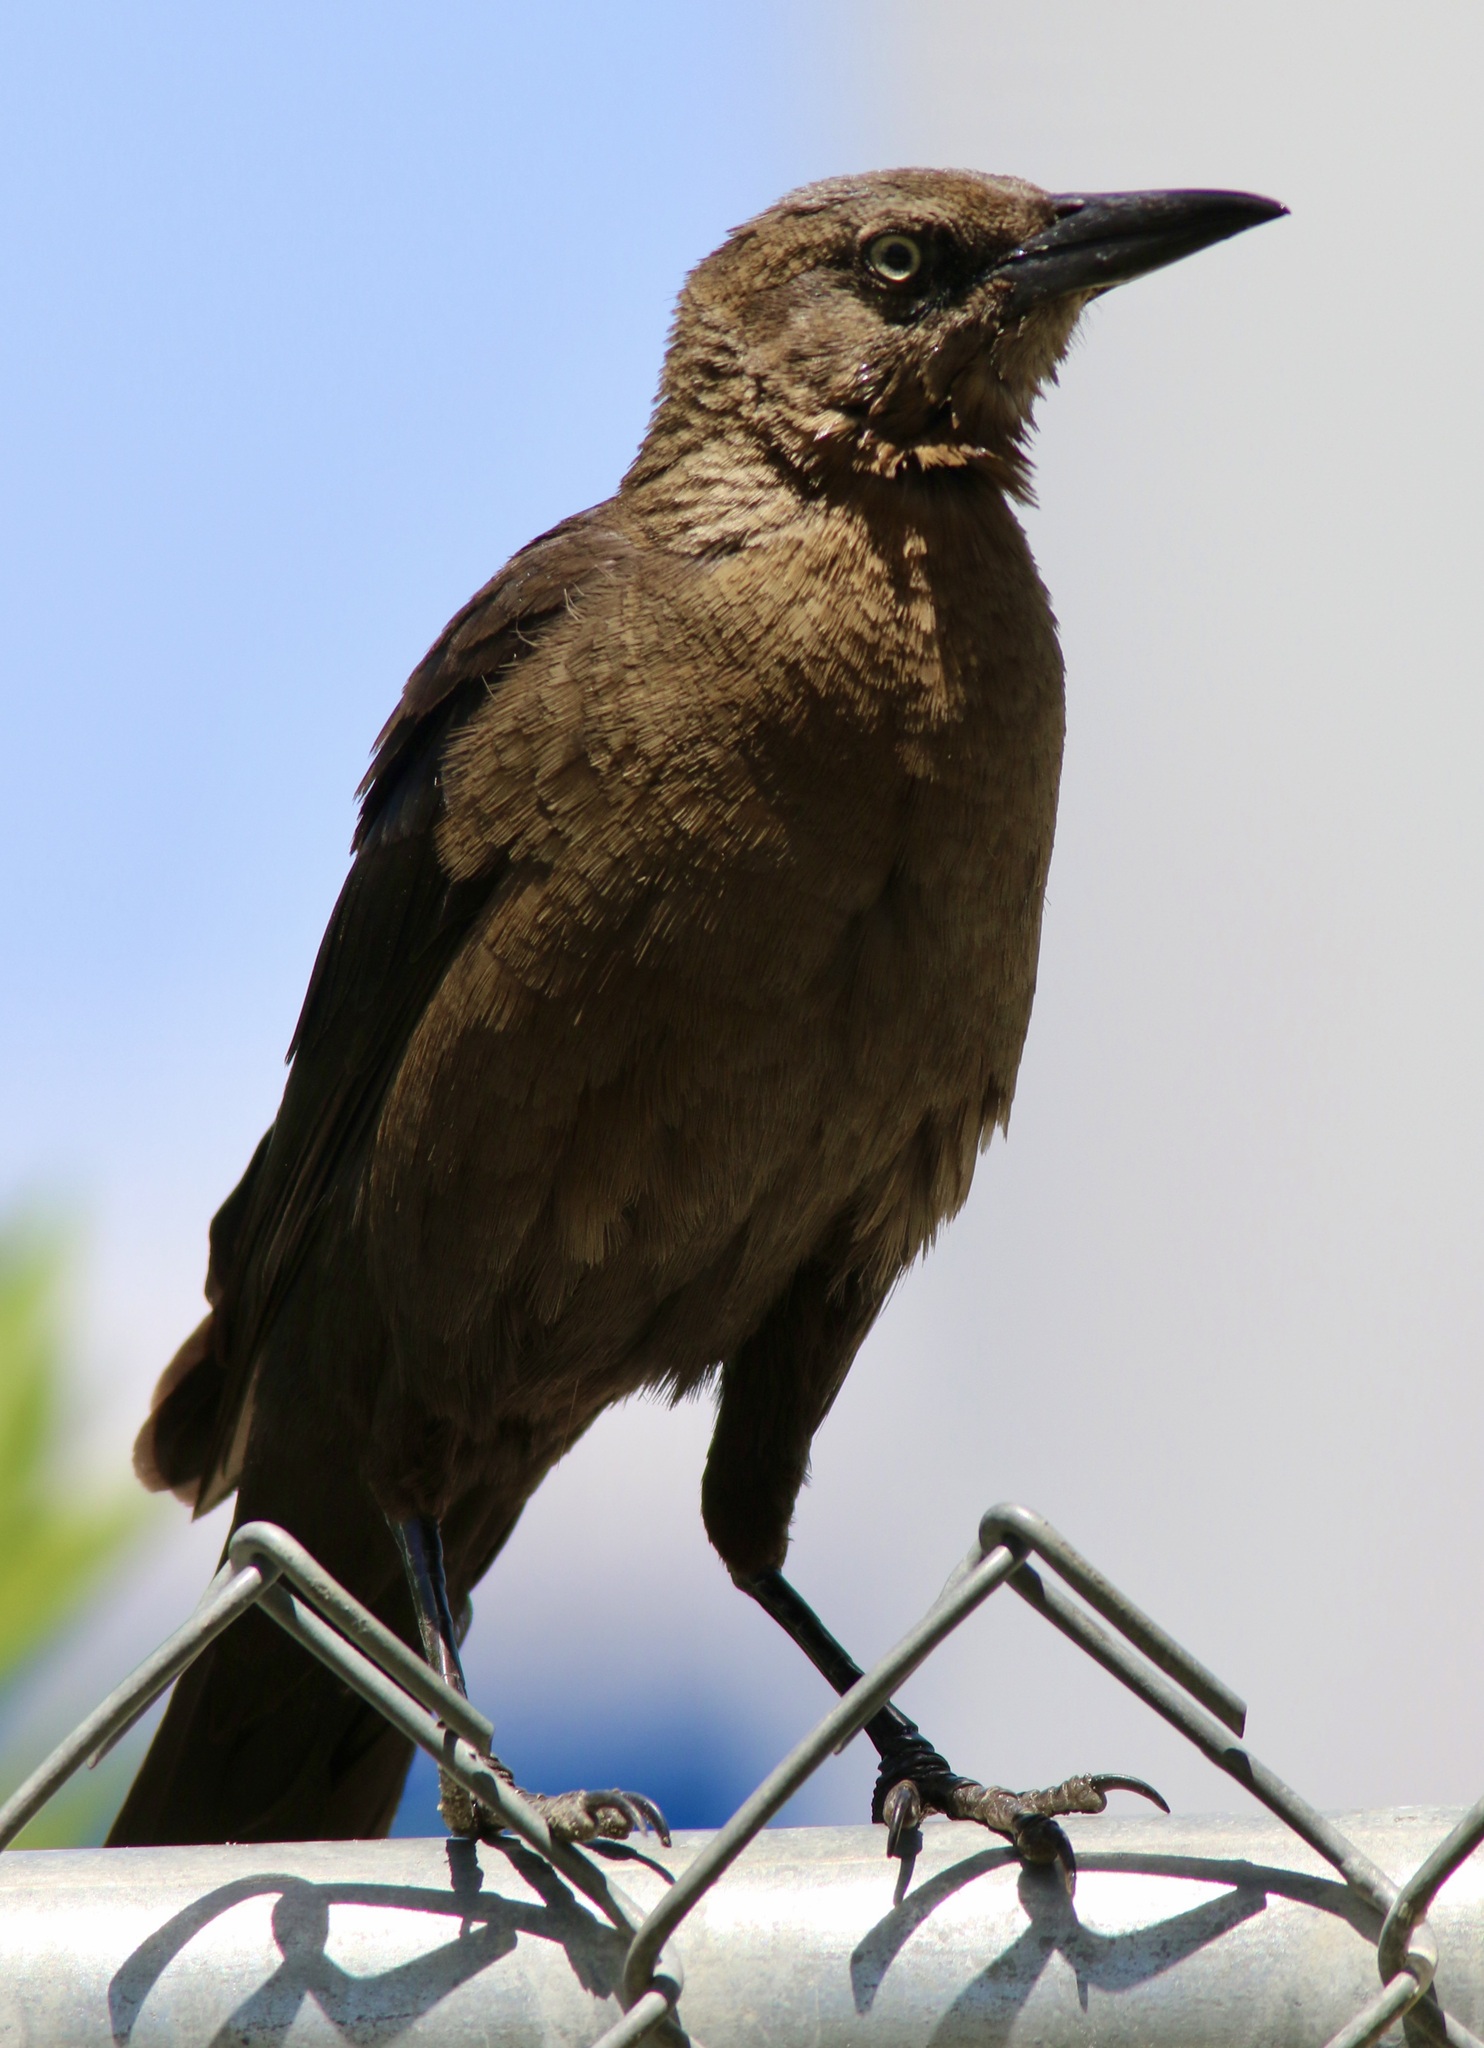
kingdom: Animalia
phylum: Chordata
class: Aves
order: Passeriformes
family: Icteridae
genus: Quiscalus
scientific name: Quiscalus mexicanus
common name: Great-tailed grackle
